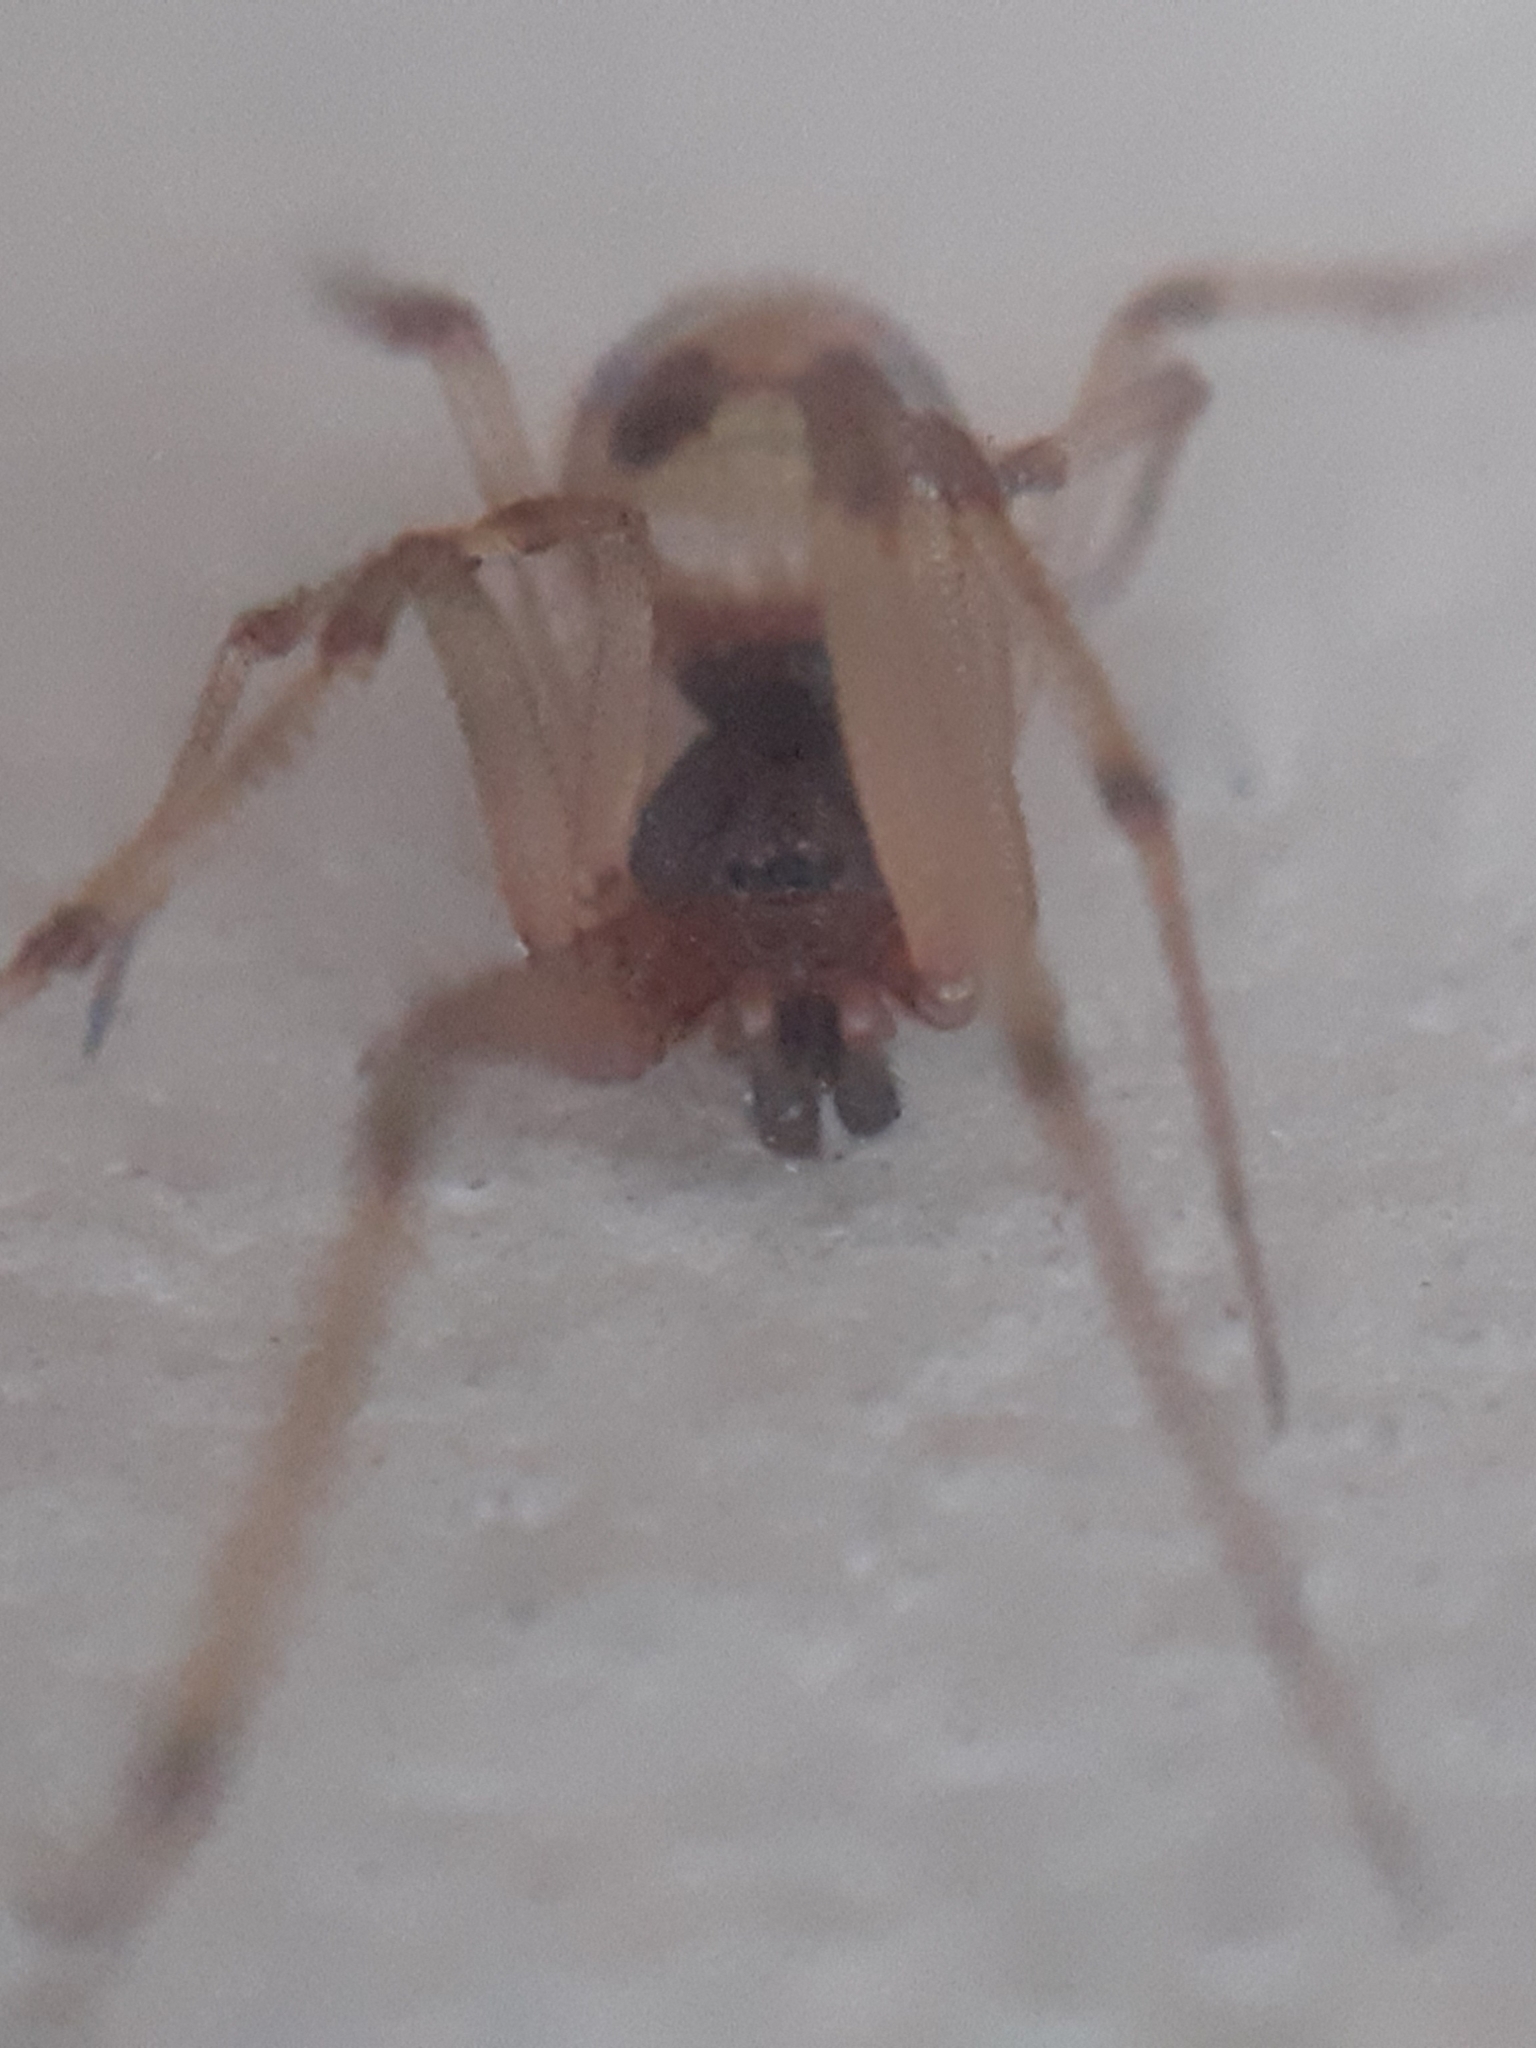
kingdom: Animalia
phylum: Arthropoda
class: Arachnida
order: Araneae
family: Theridiidae
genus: Steatoda
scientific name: Steatoda triangulosa
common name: Triangulate bud spider
